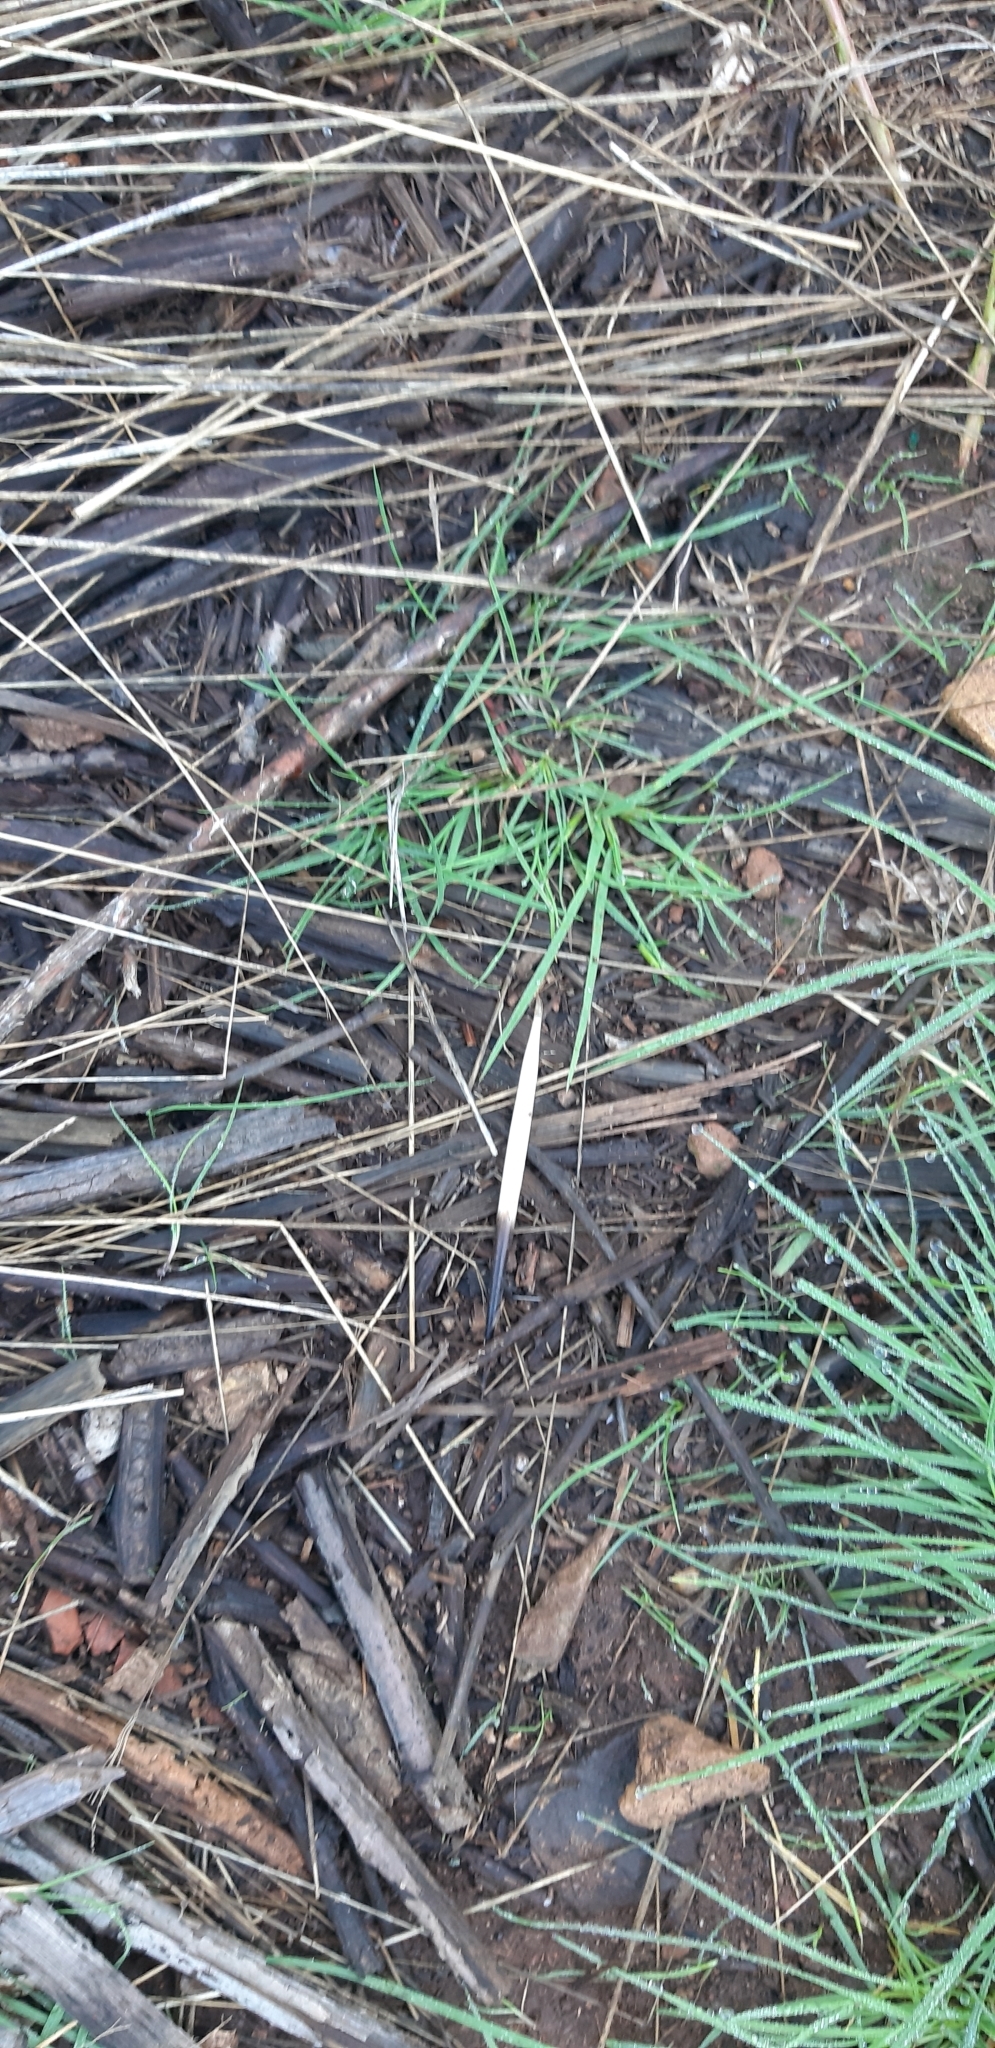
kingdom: Animalia
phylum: Chordata
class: Mammalia
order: Rodentia
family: Hystricidae
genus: Hystrix
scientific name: Hystrix cristata
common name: Crested porcupine
